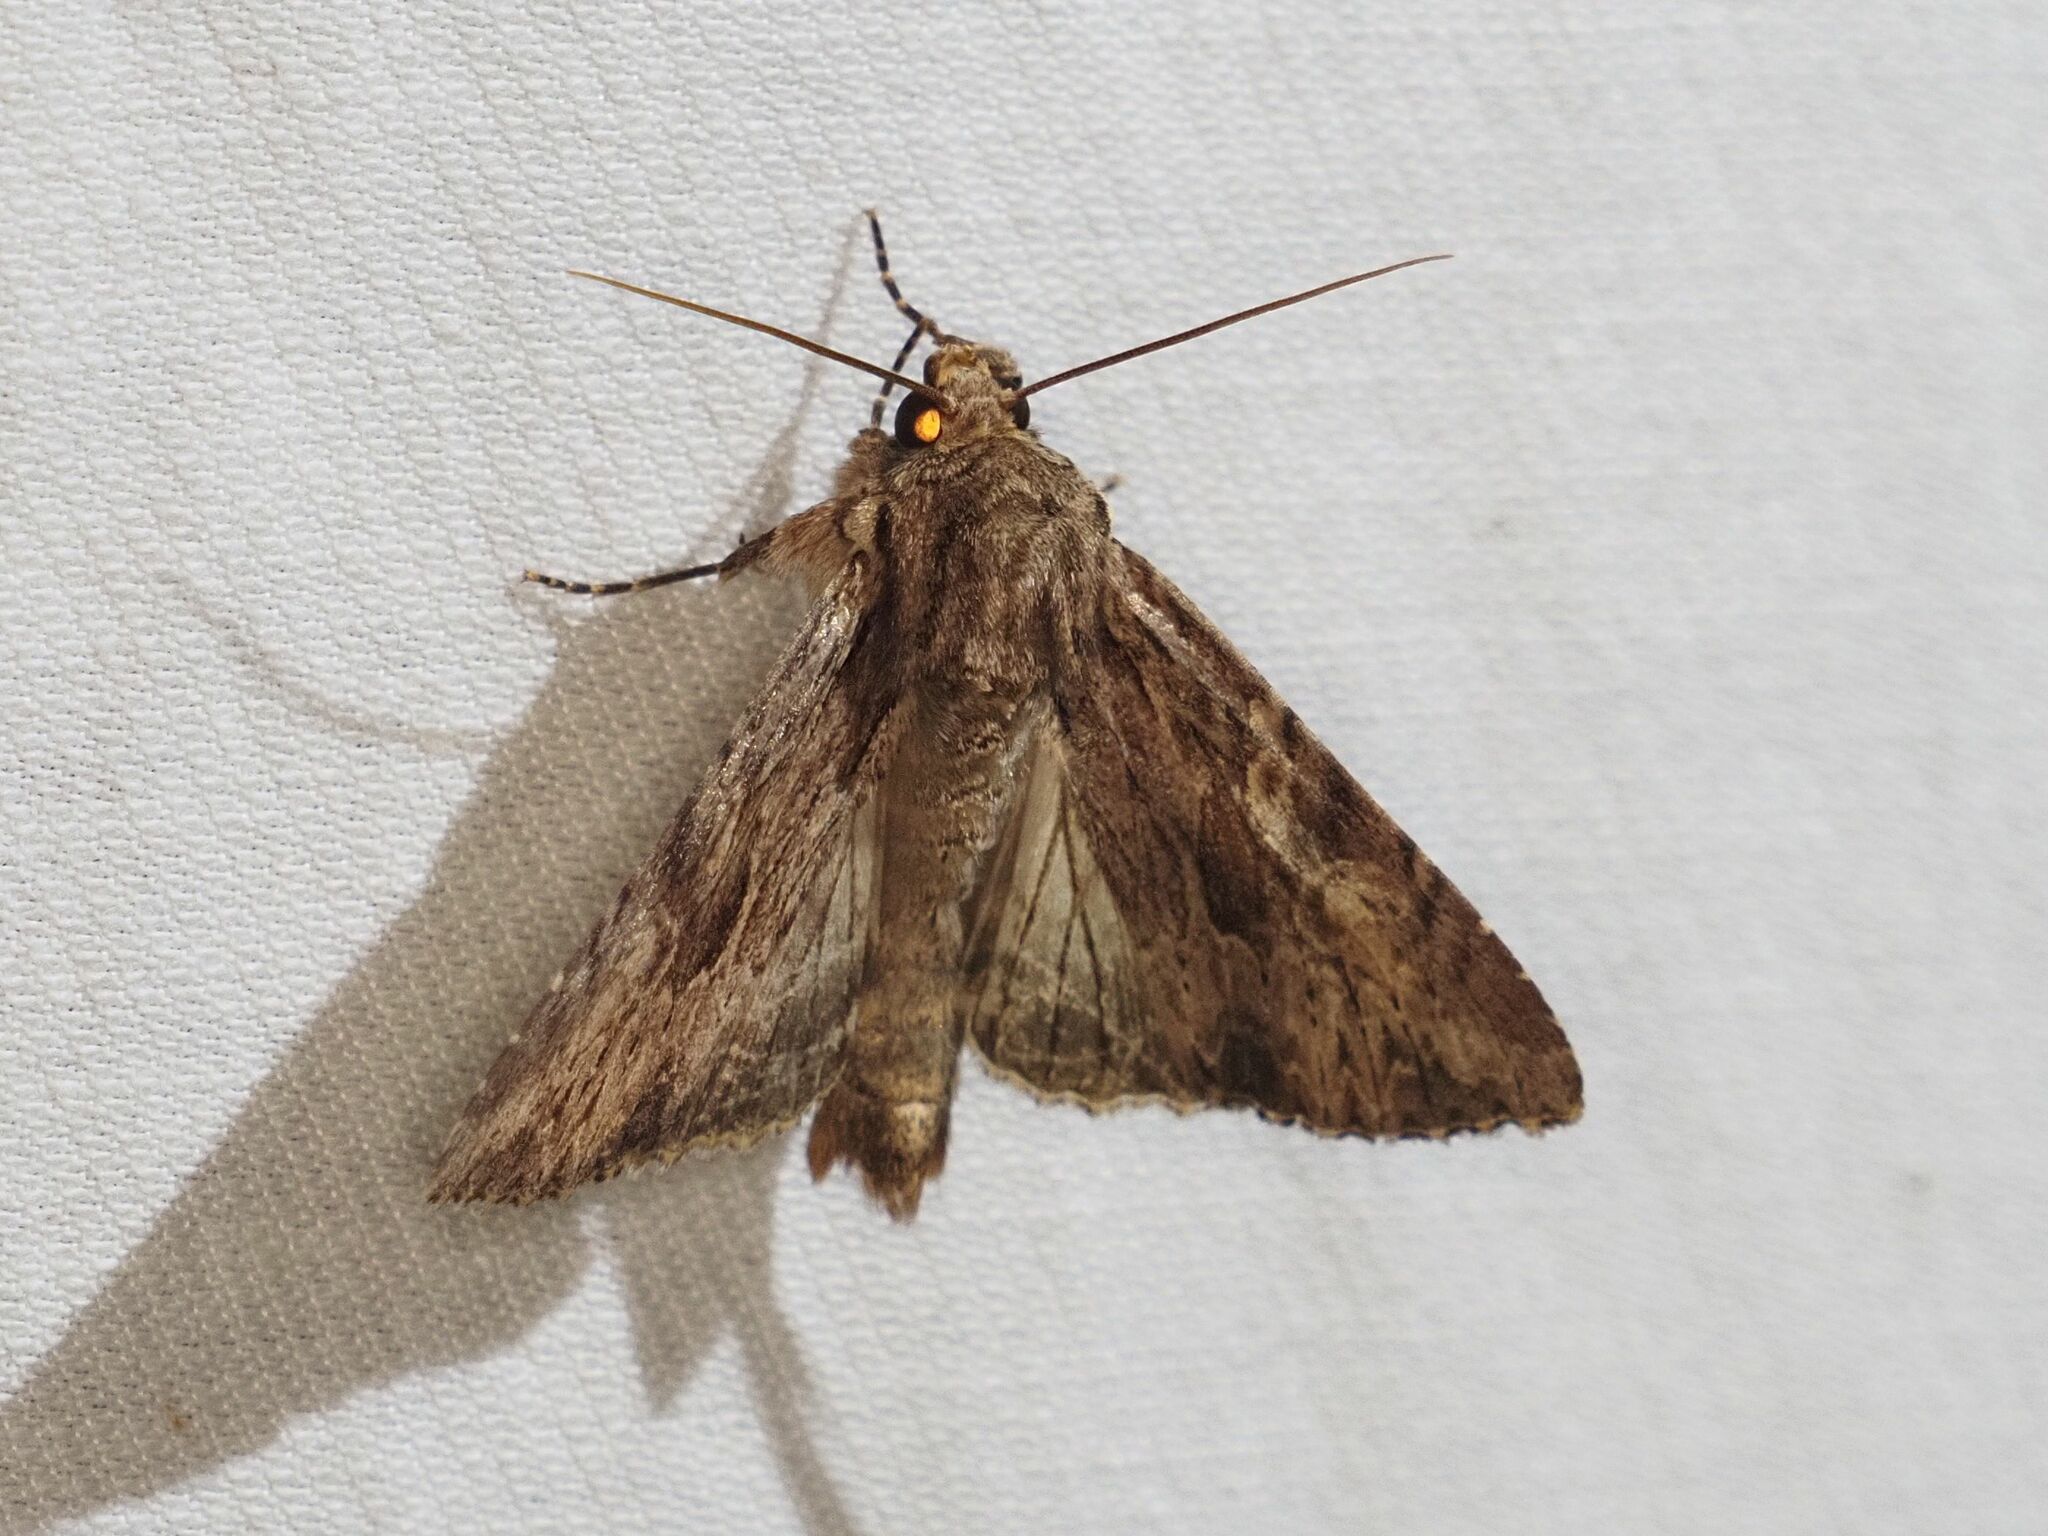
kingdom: Animalia
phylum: Arthropoda
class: Insecta
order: Lepidoptera
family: Noctuidae
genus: Apamea
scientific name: Apamea syriaca
